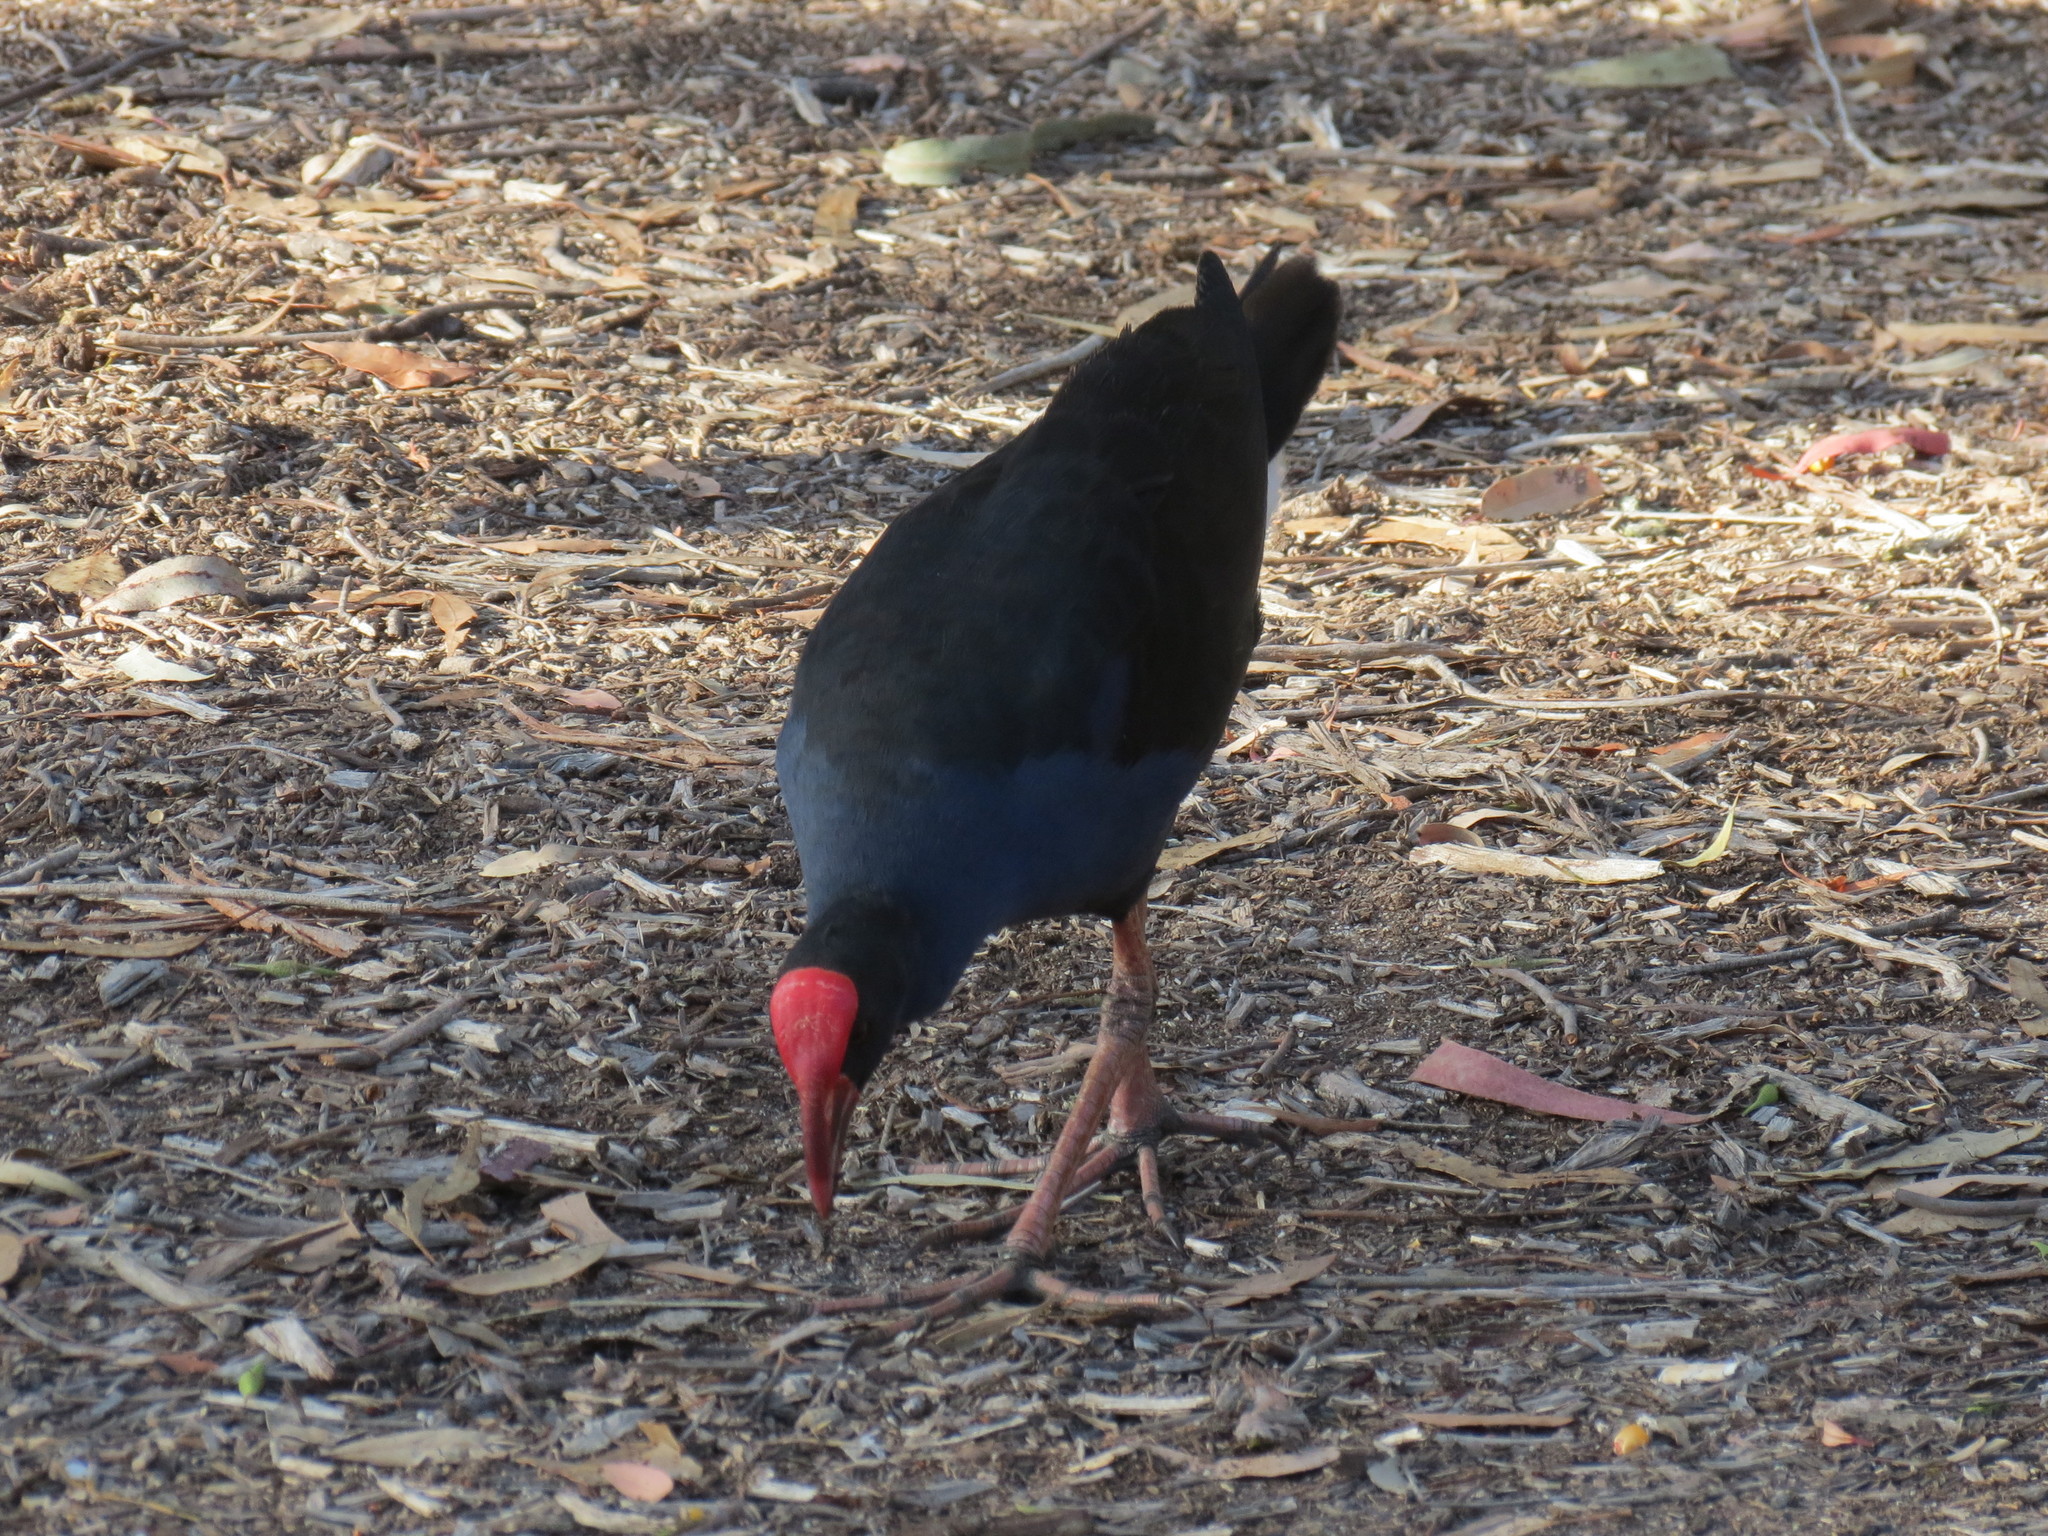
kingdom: Animalia
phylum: Chordata
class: Aves
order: Gruiformes
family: Rallidae
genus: Porphyrio
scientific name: Porphyrio melanotus
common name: Australasian swamphen
